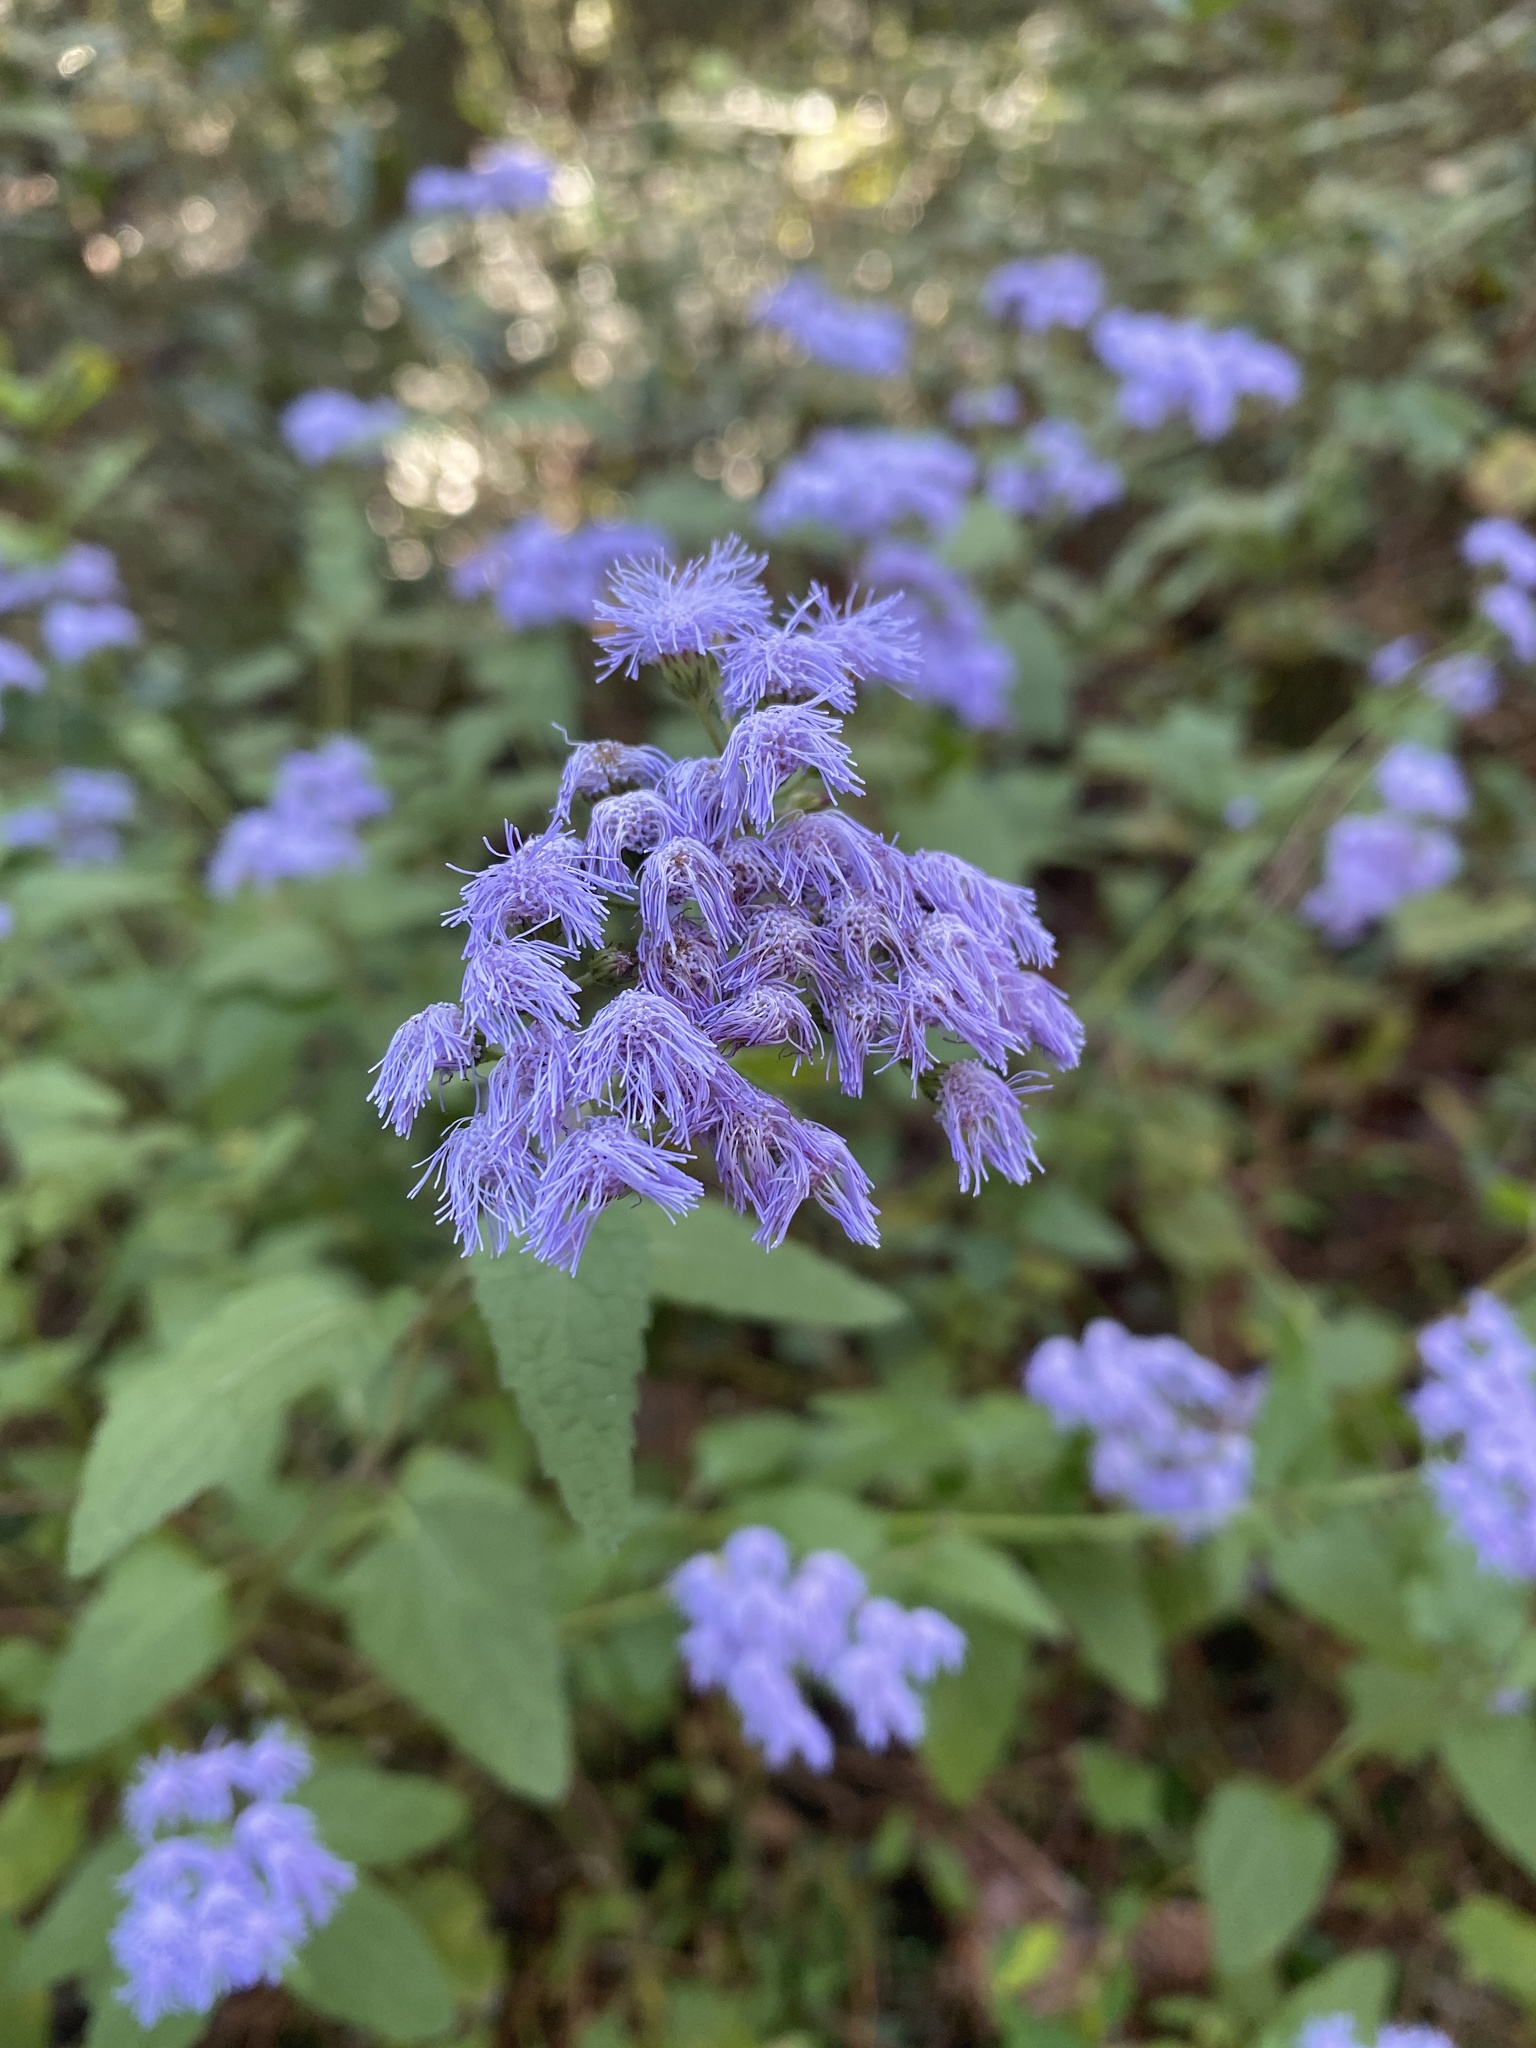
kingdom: Plantae
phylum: Tracheophyta
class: Magnoliopsida
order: Asterales
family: Asteraceae
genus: Conoclinium
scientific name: Conoclinium coelestinum
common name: Blue mistflower
